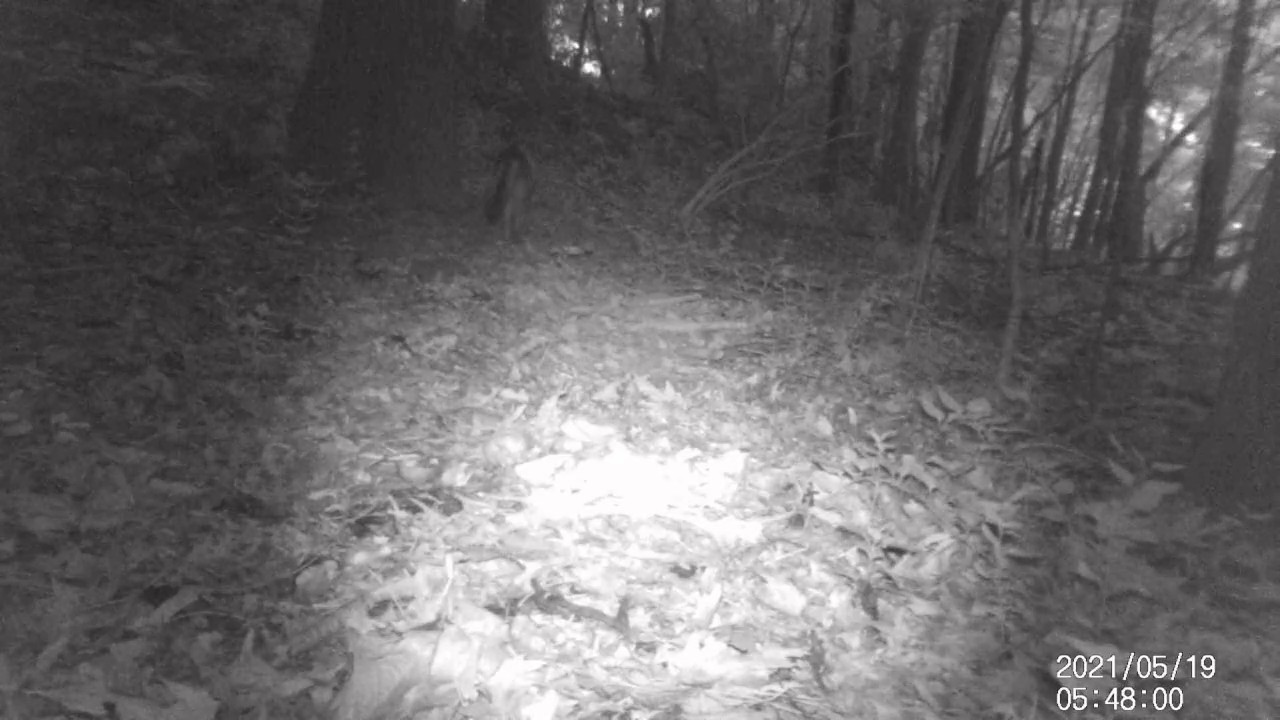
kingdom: Animalia
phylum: Chordata
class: Mammalia
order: Carnivora
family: Canidae
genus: Urocyon
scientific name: Urocyon cinereoargenteus
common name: Gray fox
